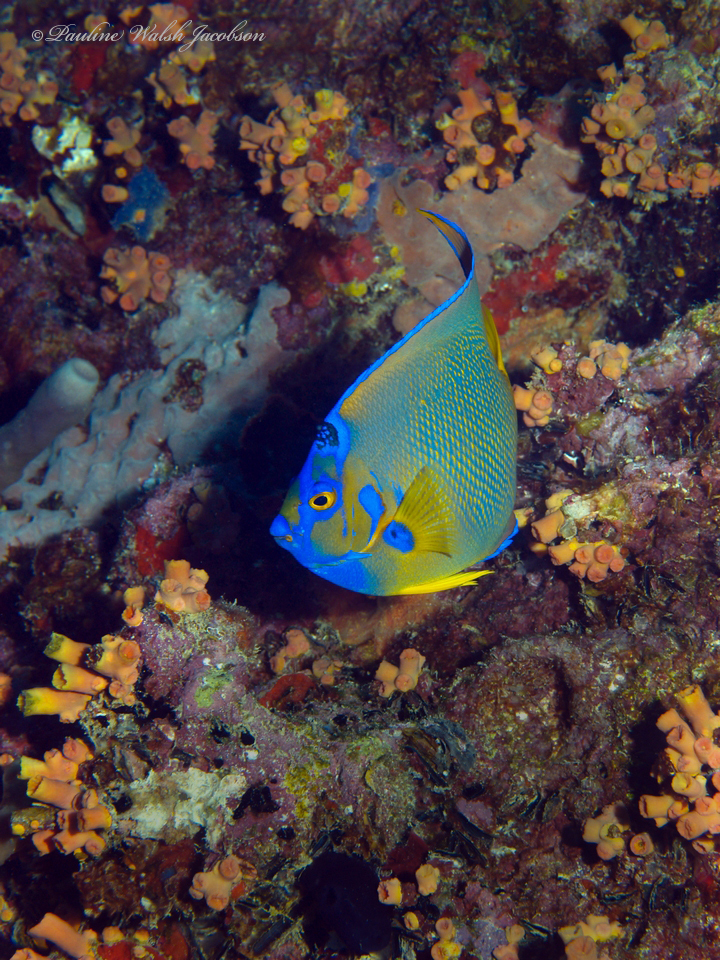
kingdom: Animalia
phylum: Chordata
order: Perciformes
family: Pomacanthidae
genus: Holacanthus
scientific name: Holacanthus ciliaris
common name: Queen angelfish
